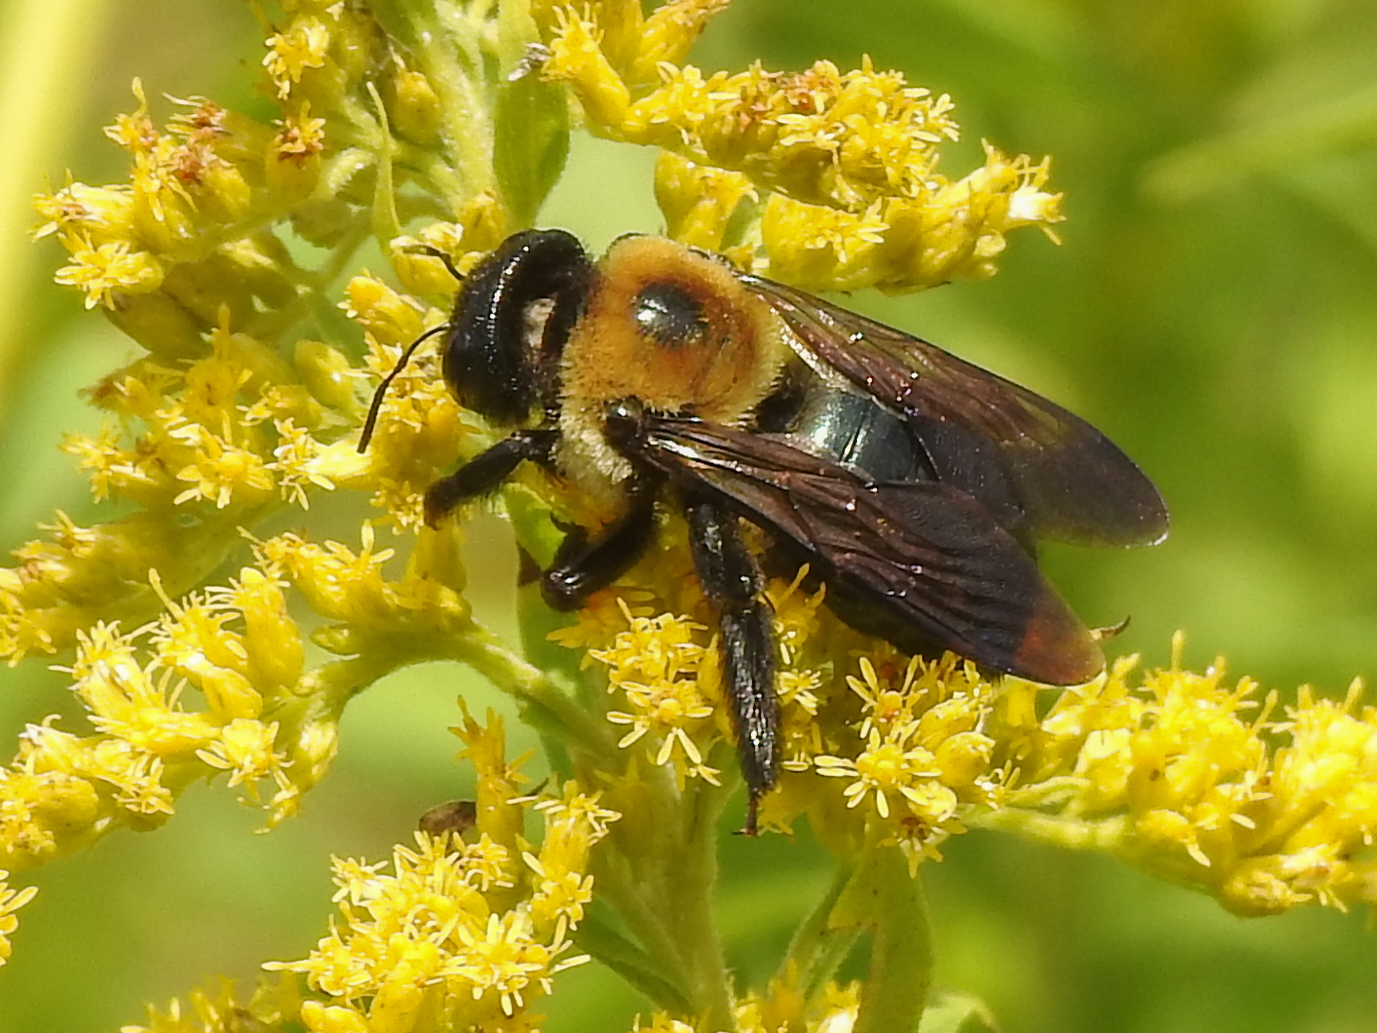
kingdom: Animalia
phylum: Arthropoda
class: Insecta
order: Hymenoptera
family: Apidae
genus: Xylocopa
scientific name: Xylocopa virginica
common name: Carpenter bee
